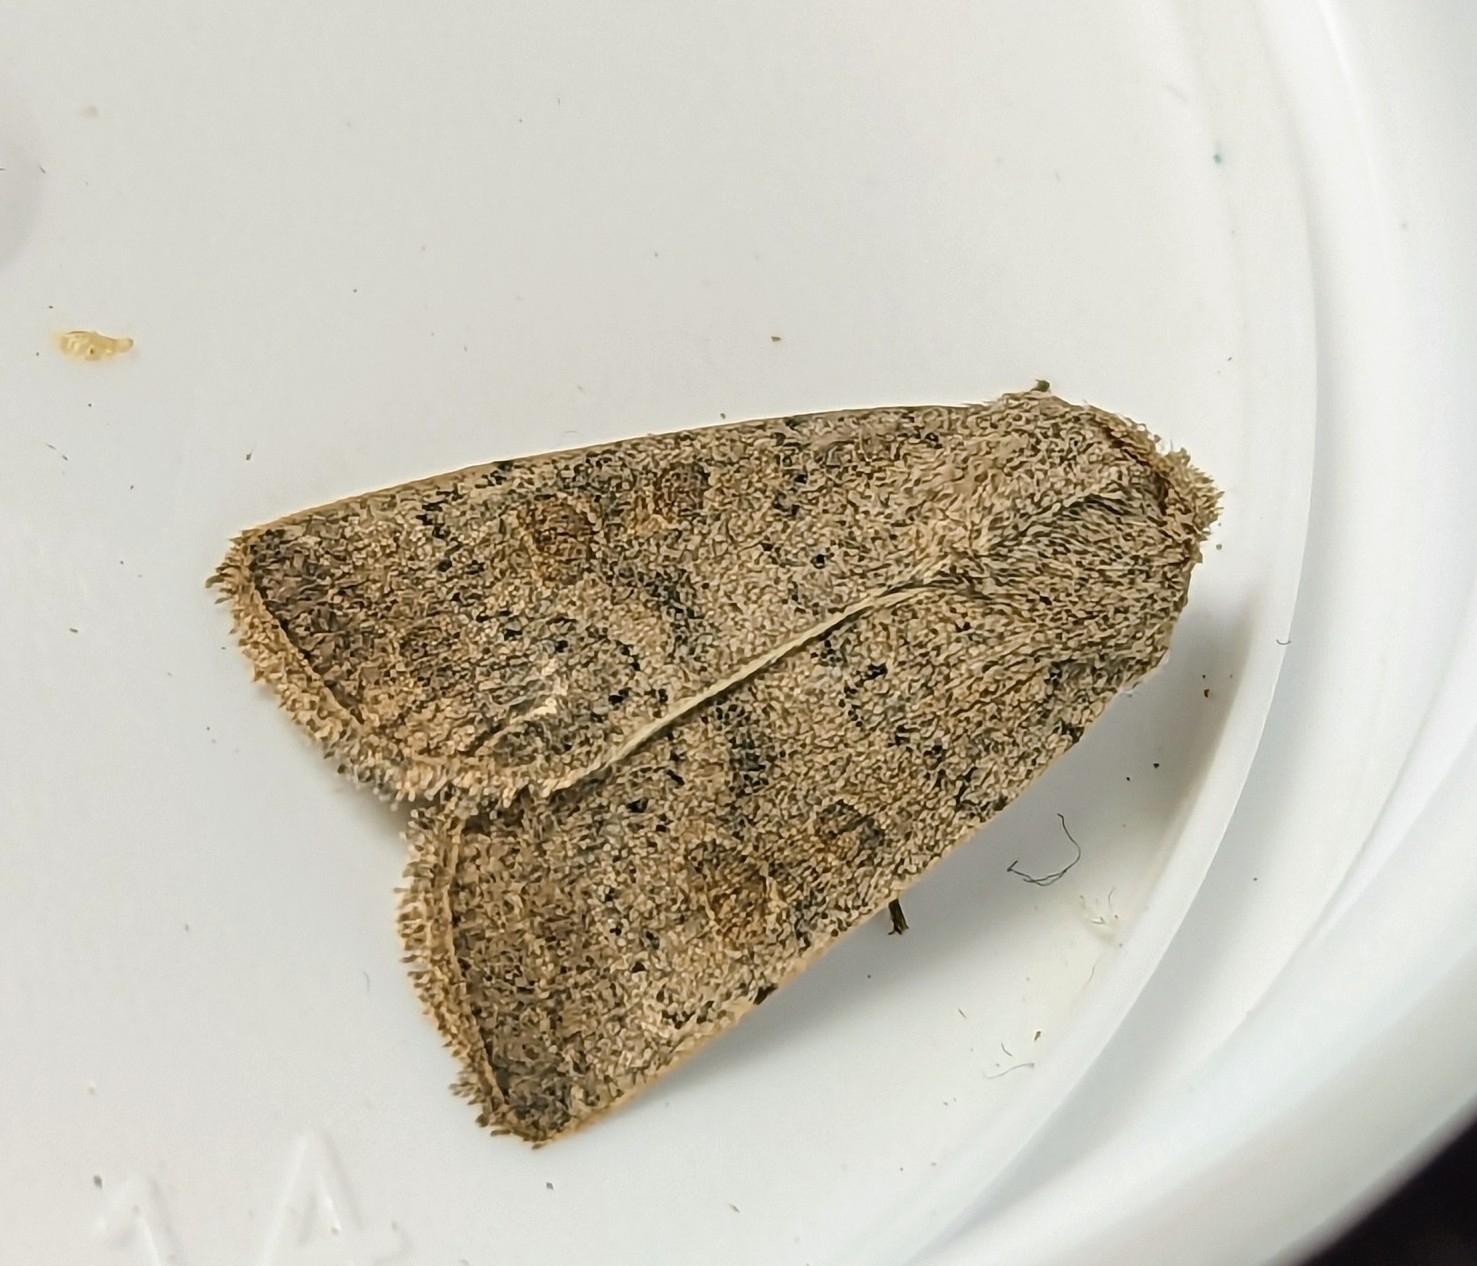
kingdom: Animalia
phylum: Arthropoda
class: Insecta
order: Lepidoptera
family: Noctuidae
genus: Hoplodrina
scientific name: Hoplodrina ambigua
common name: Vine's rustic
